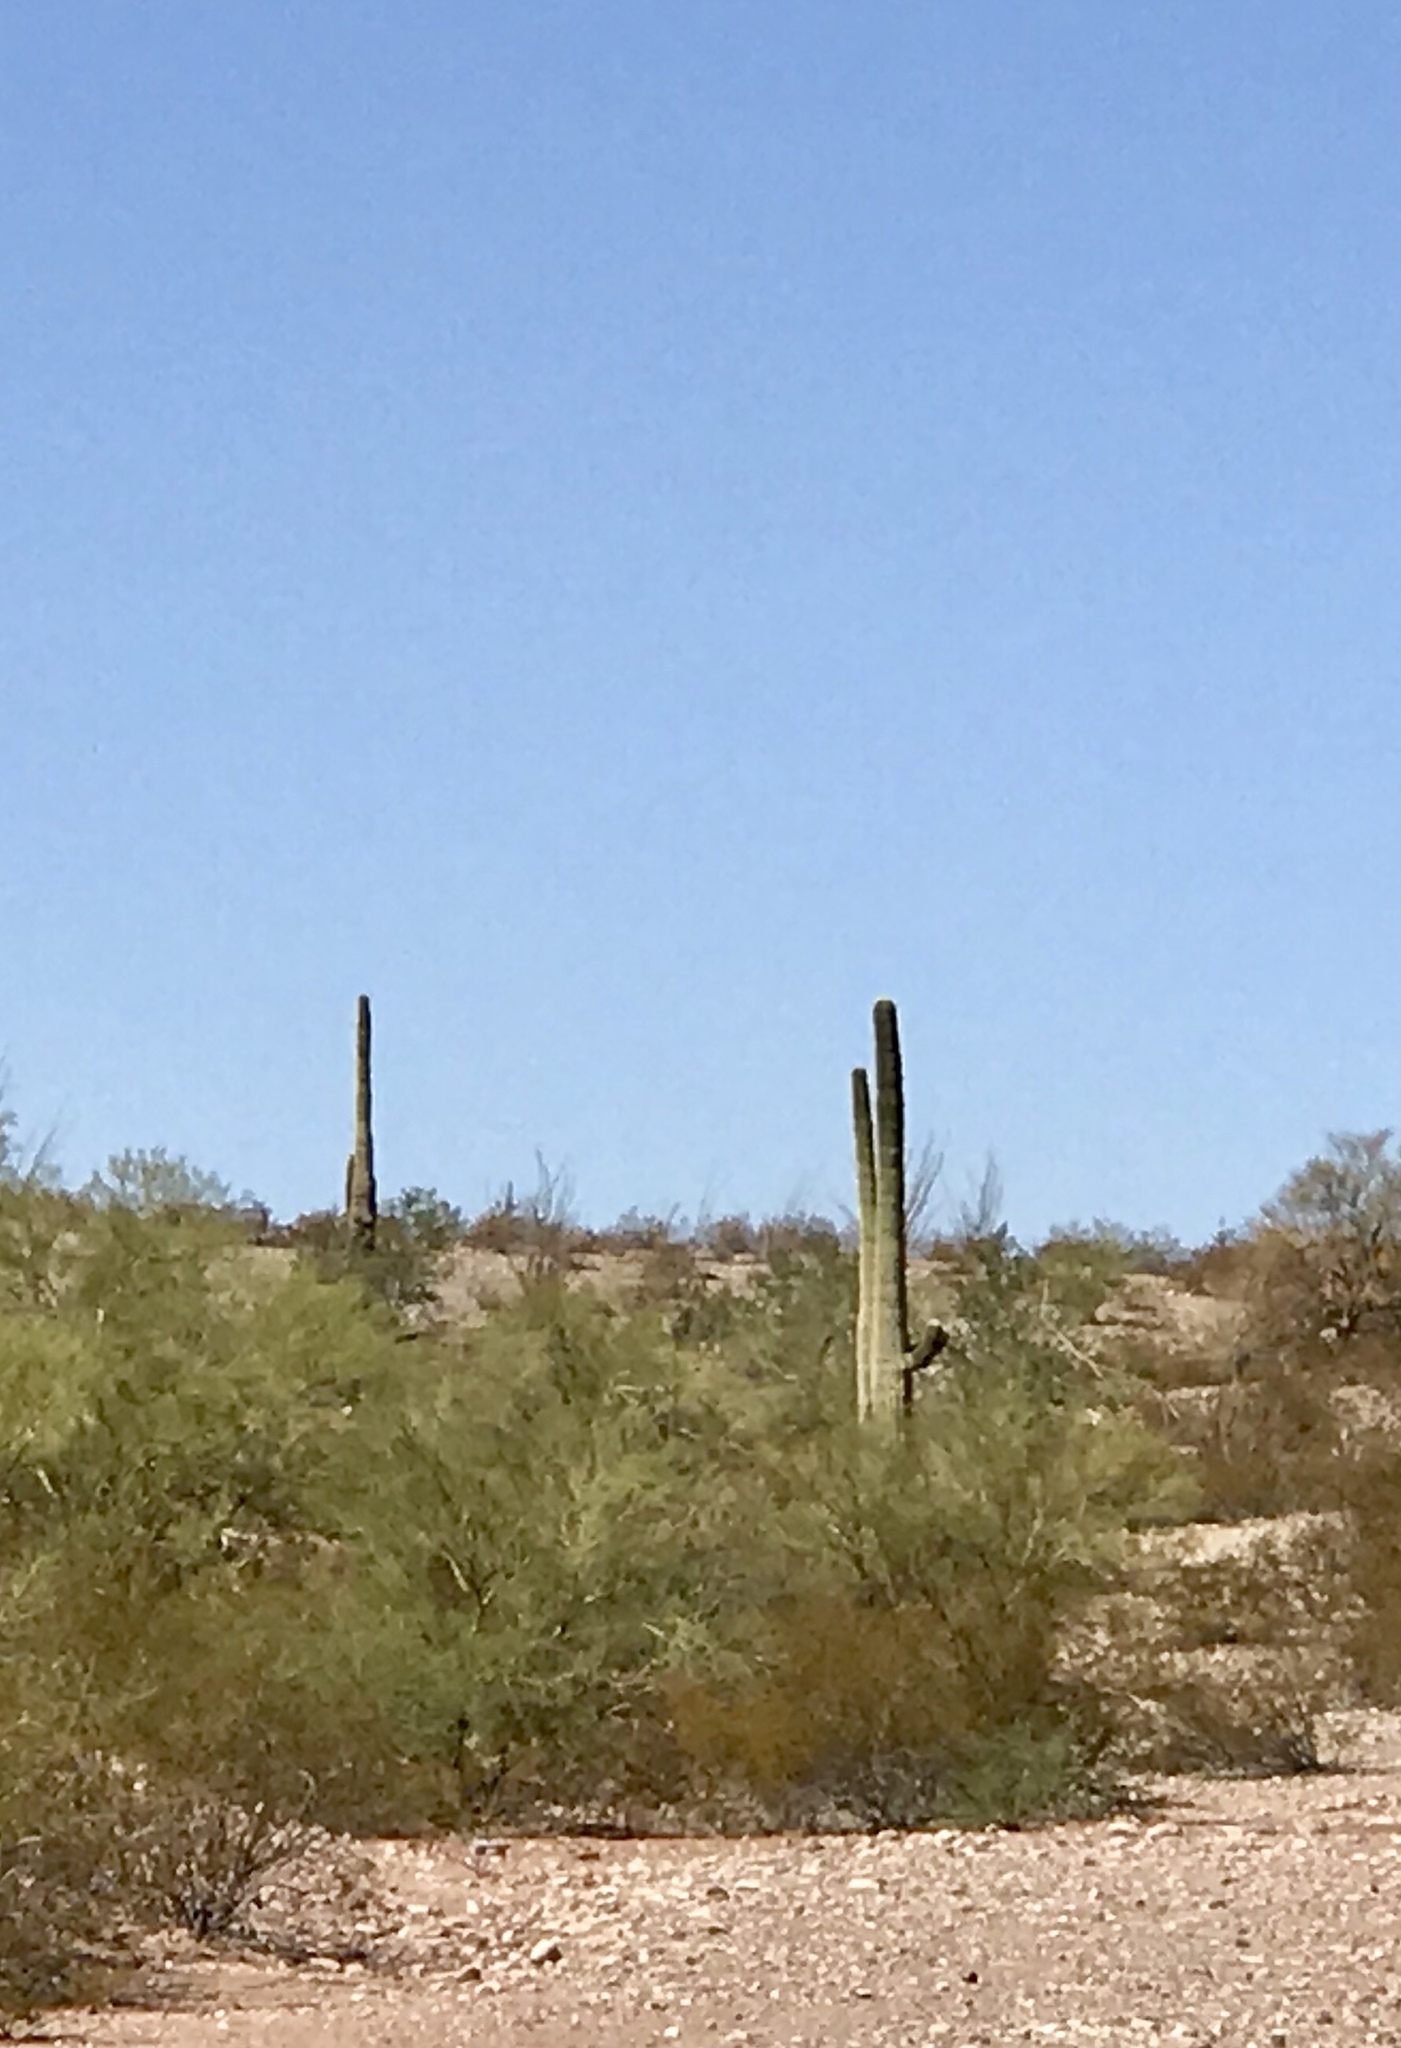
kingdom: Plantae
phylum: Tracheophyta
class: Magnoliopsida
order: Caryophyllales
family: Cactaceae
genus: Carnegiea
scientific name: Carnegiea gigantea
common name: Saguaro
